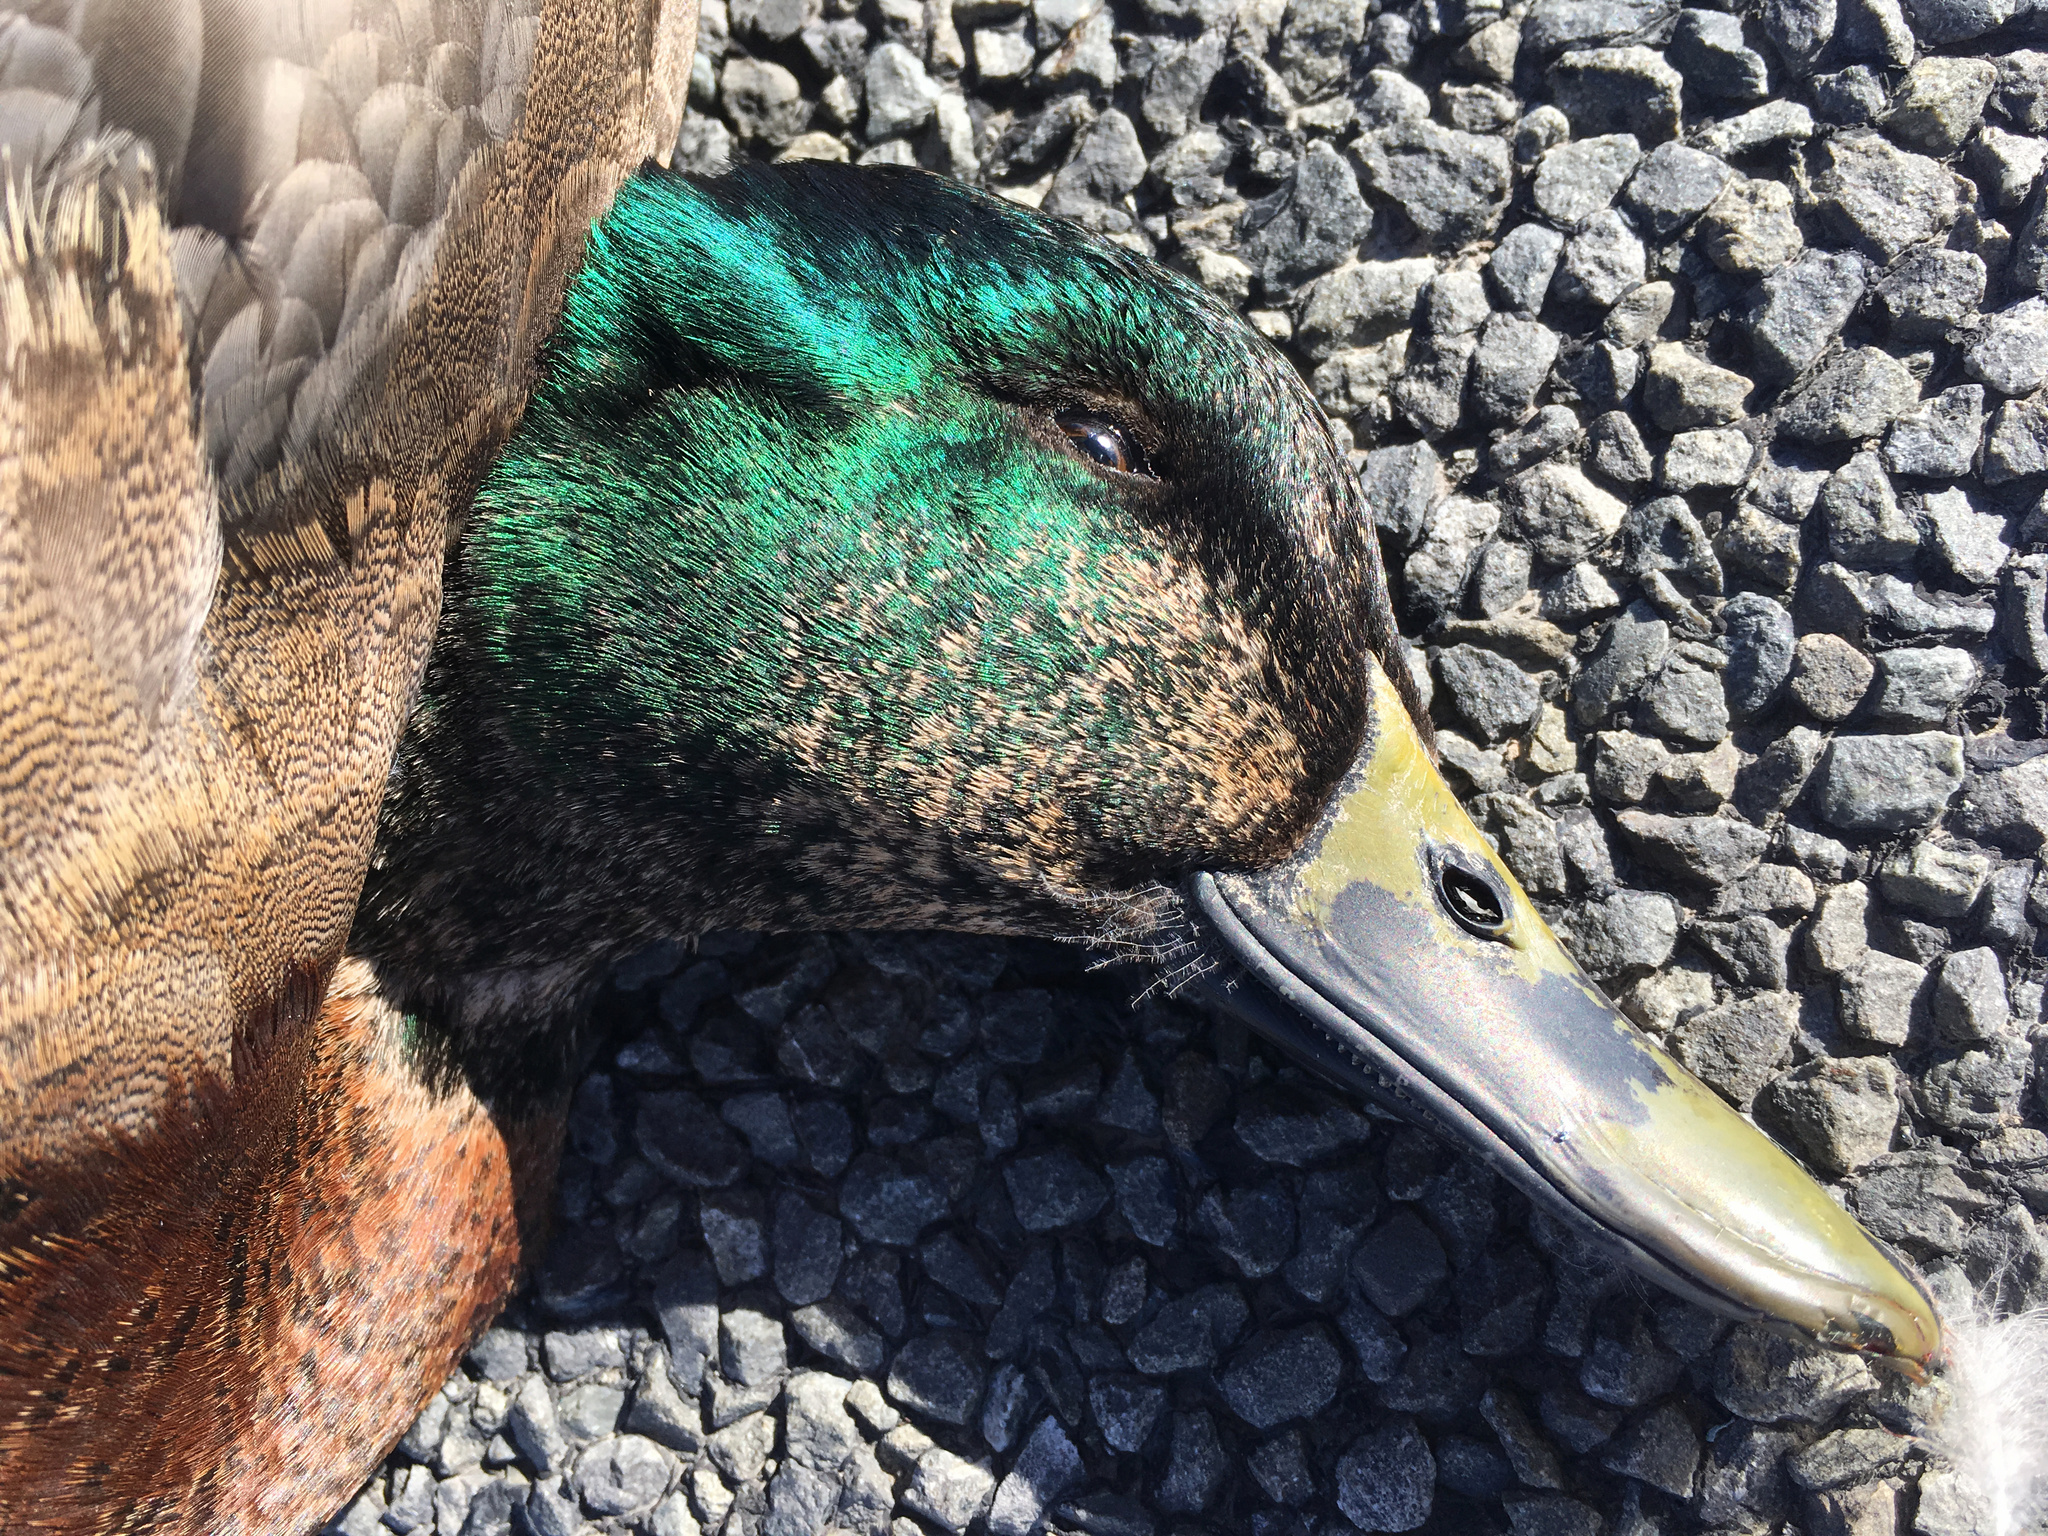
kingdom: Animalia
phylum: Chordata
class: Aves
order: Anseriformes
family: Anatidae
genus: Anas
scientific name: Anas platyrhynchos
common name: Mallard
